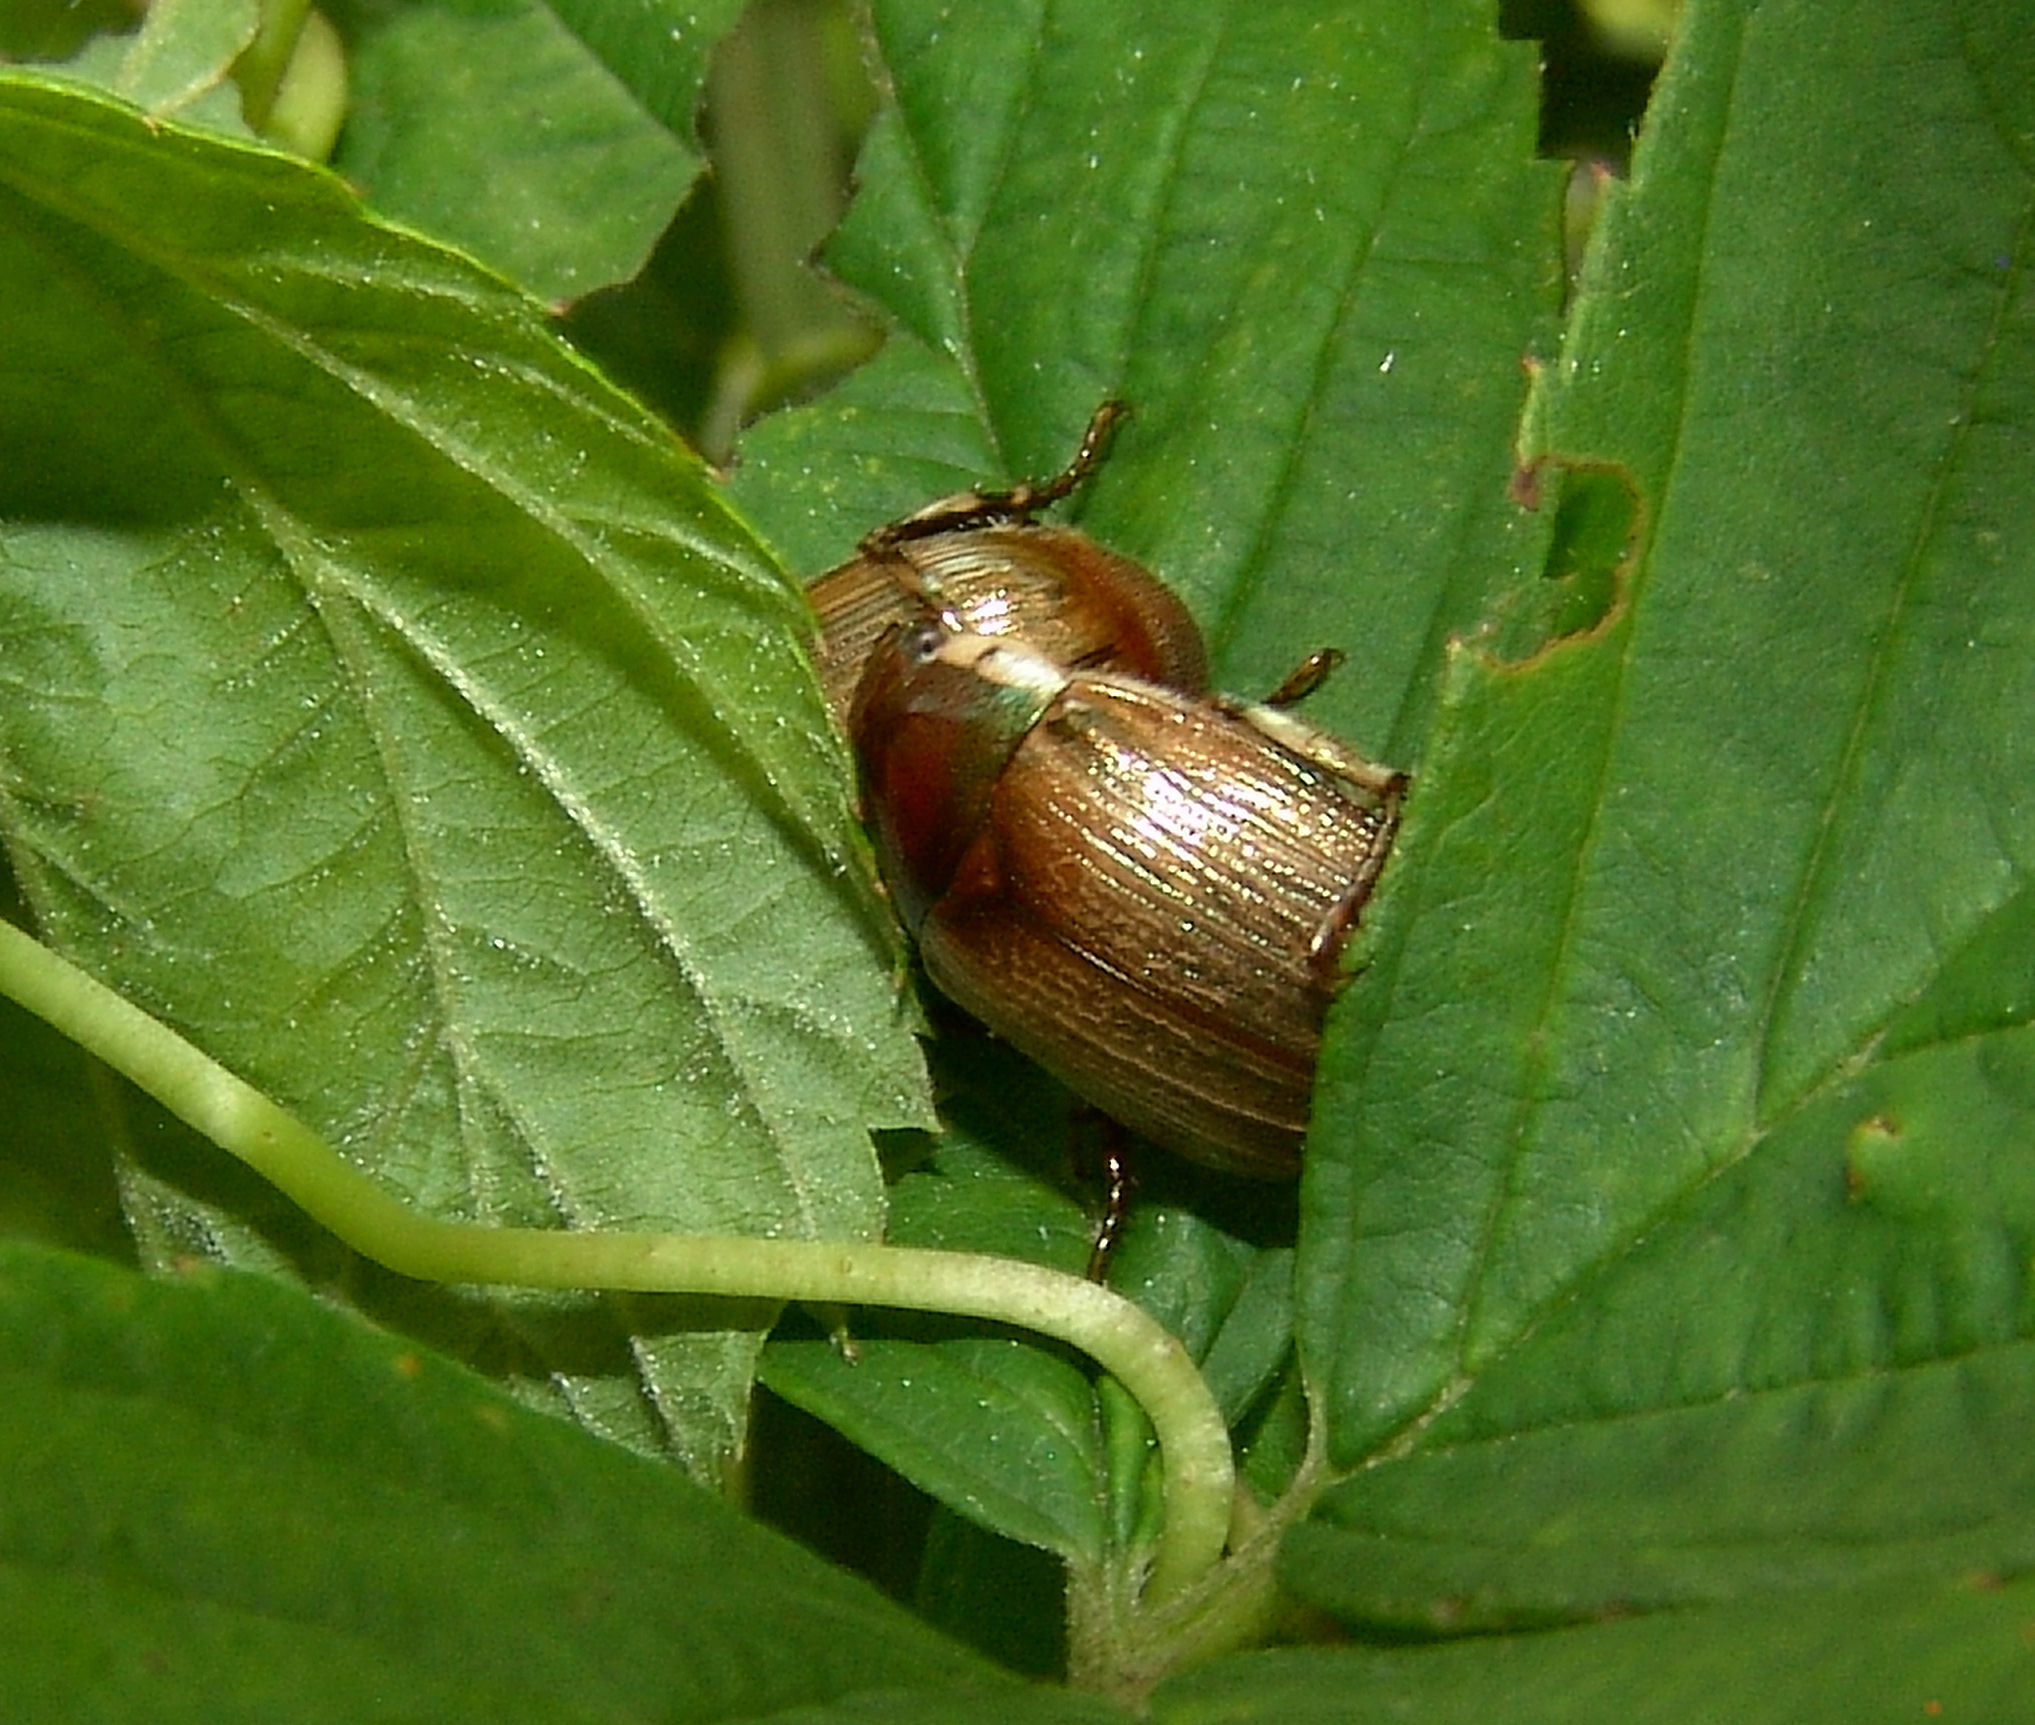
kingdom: Animalia
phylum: Arthropoda
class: Insecta
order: Coleoptera
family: Scarabaeidae
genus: Callistethus
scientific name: Callistethus marginatus
